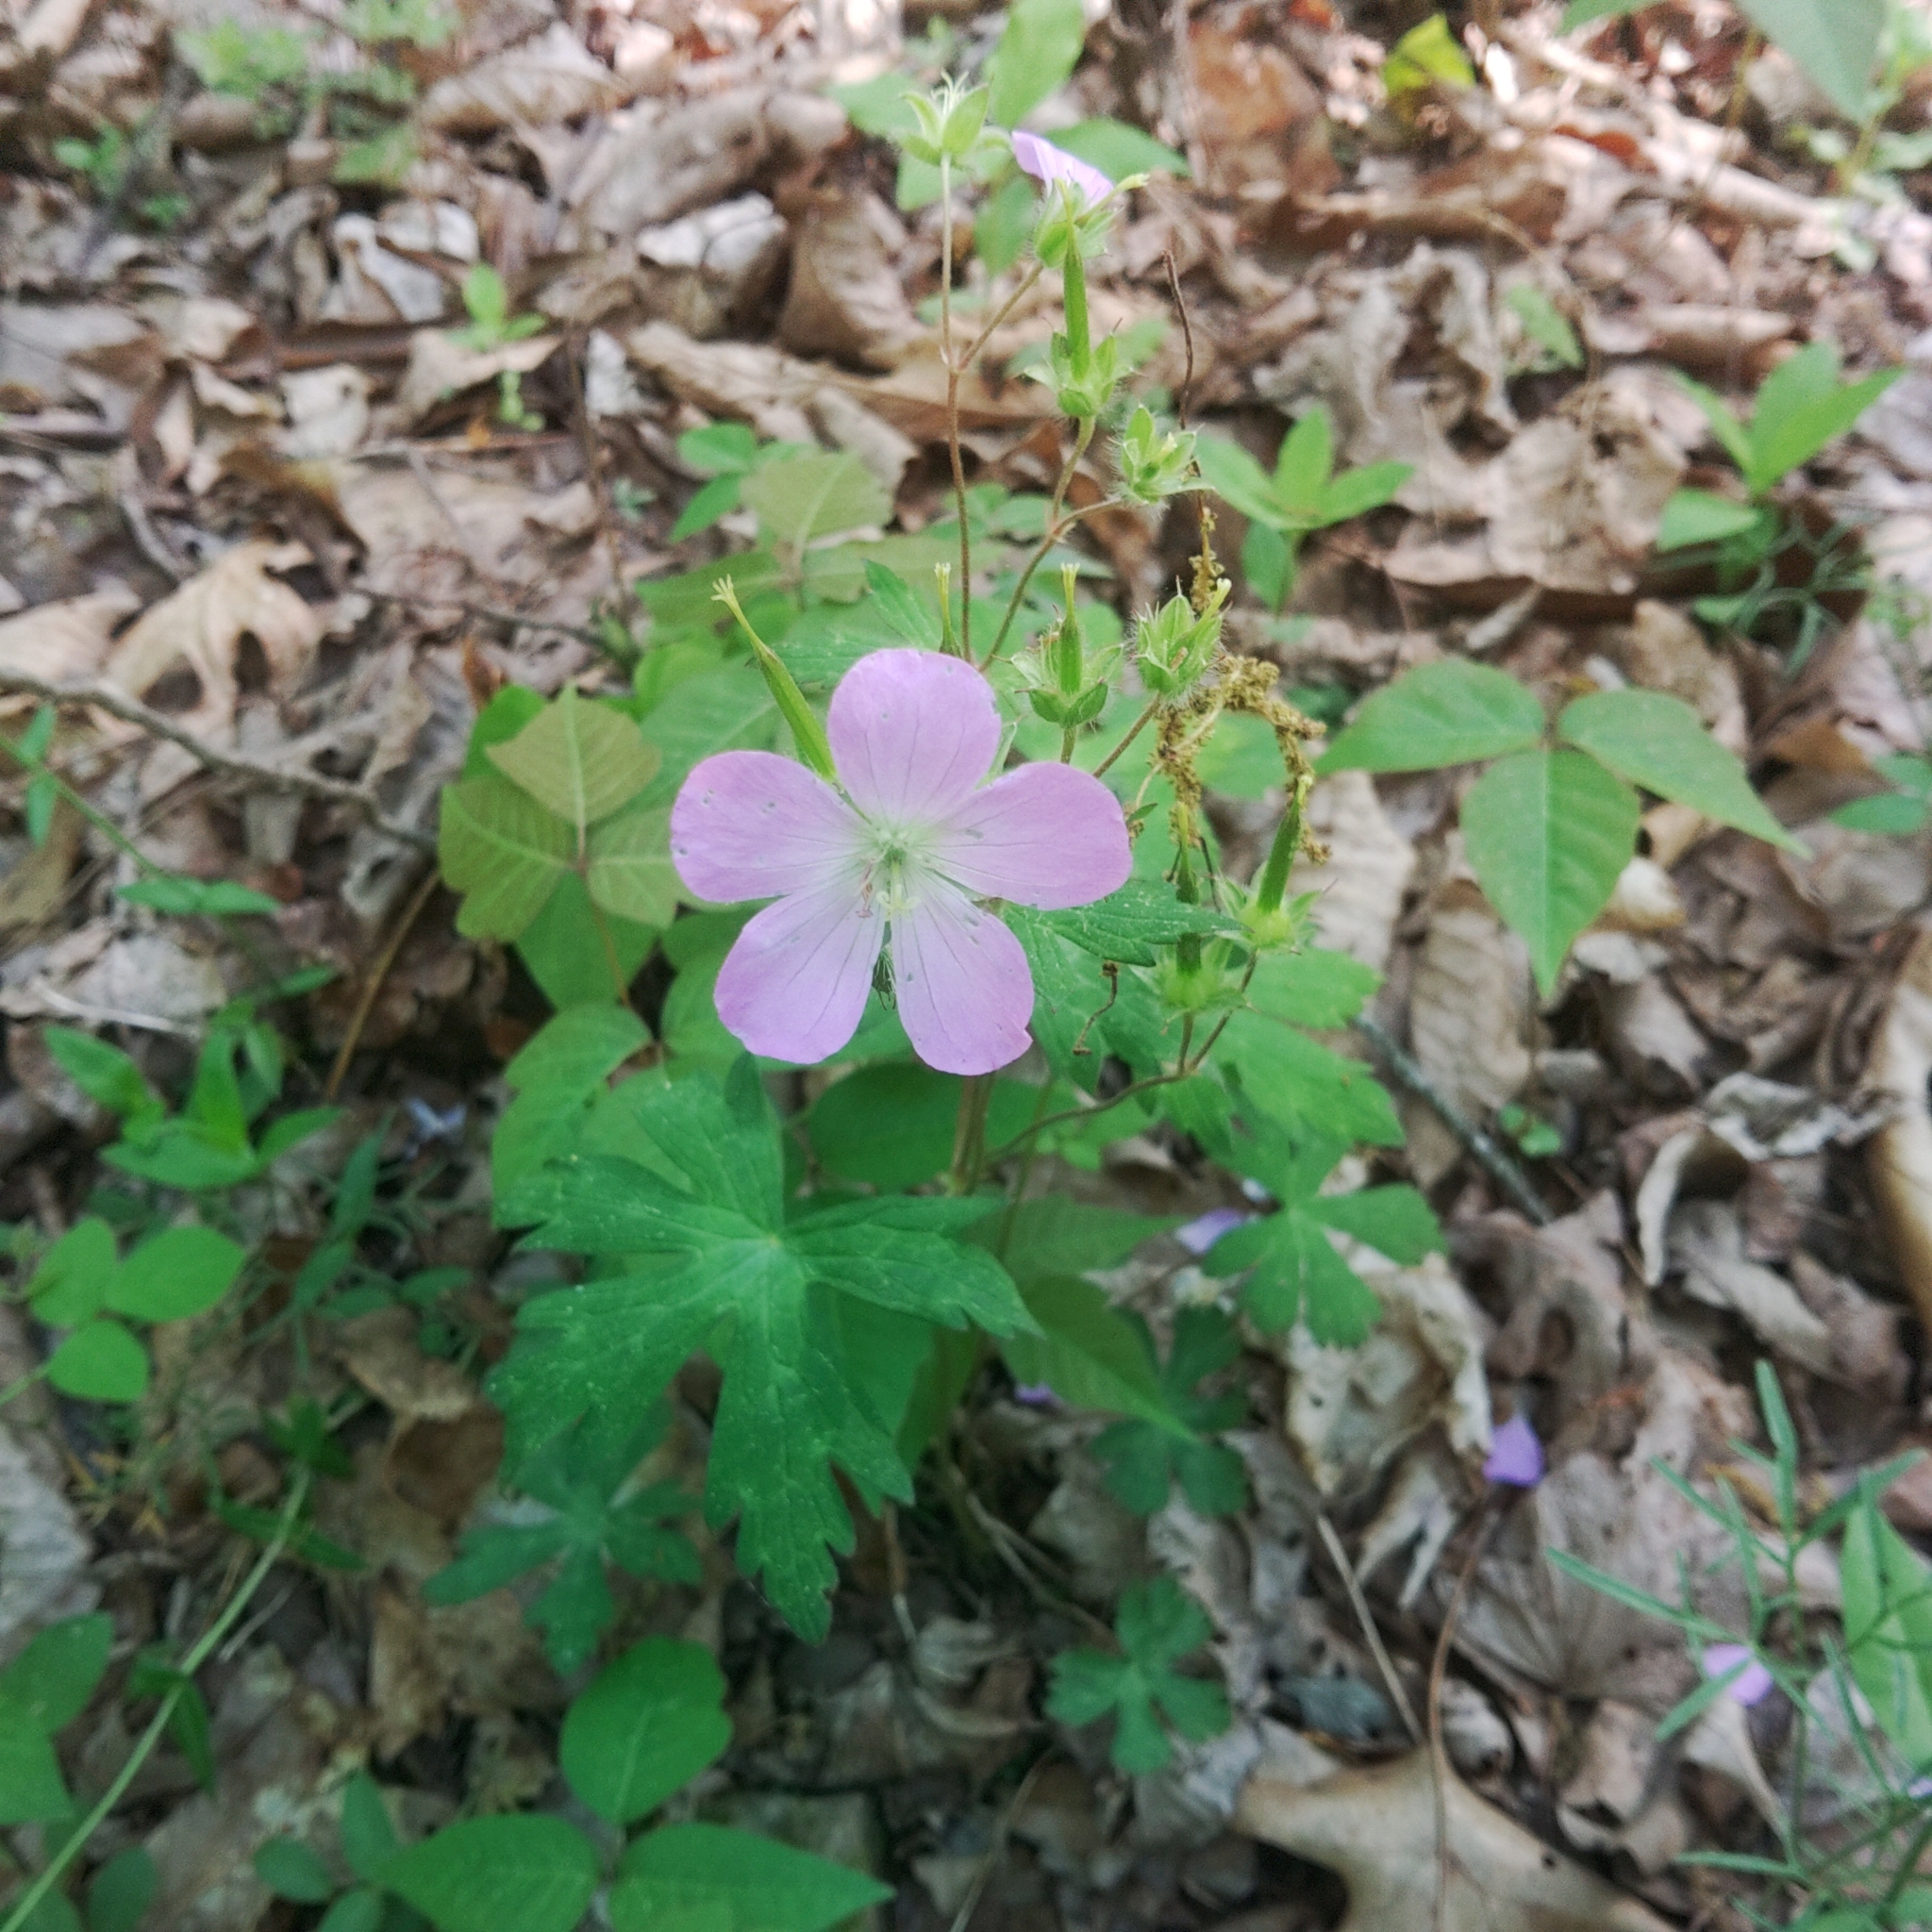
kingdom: Plantae
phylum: Tracheophyta
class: Magnoliopsida
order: Geraniales
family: Geraniaceae
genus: Geranium
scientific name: Geranium maculatum
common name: Spotted geranium
